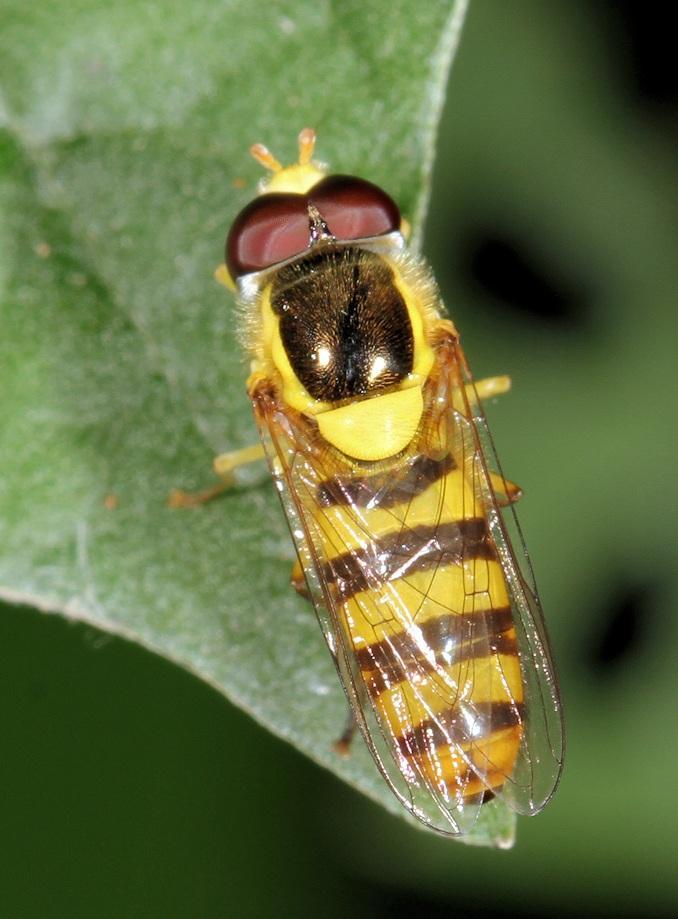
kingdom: Animalia
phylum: Arthropoda
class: Insecta
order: Diptera
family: Syrphidae
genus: Allograpta
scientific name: Allograpta nasuta
